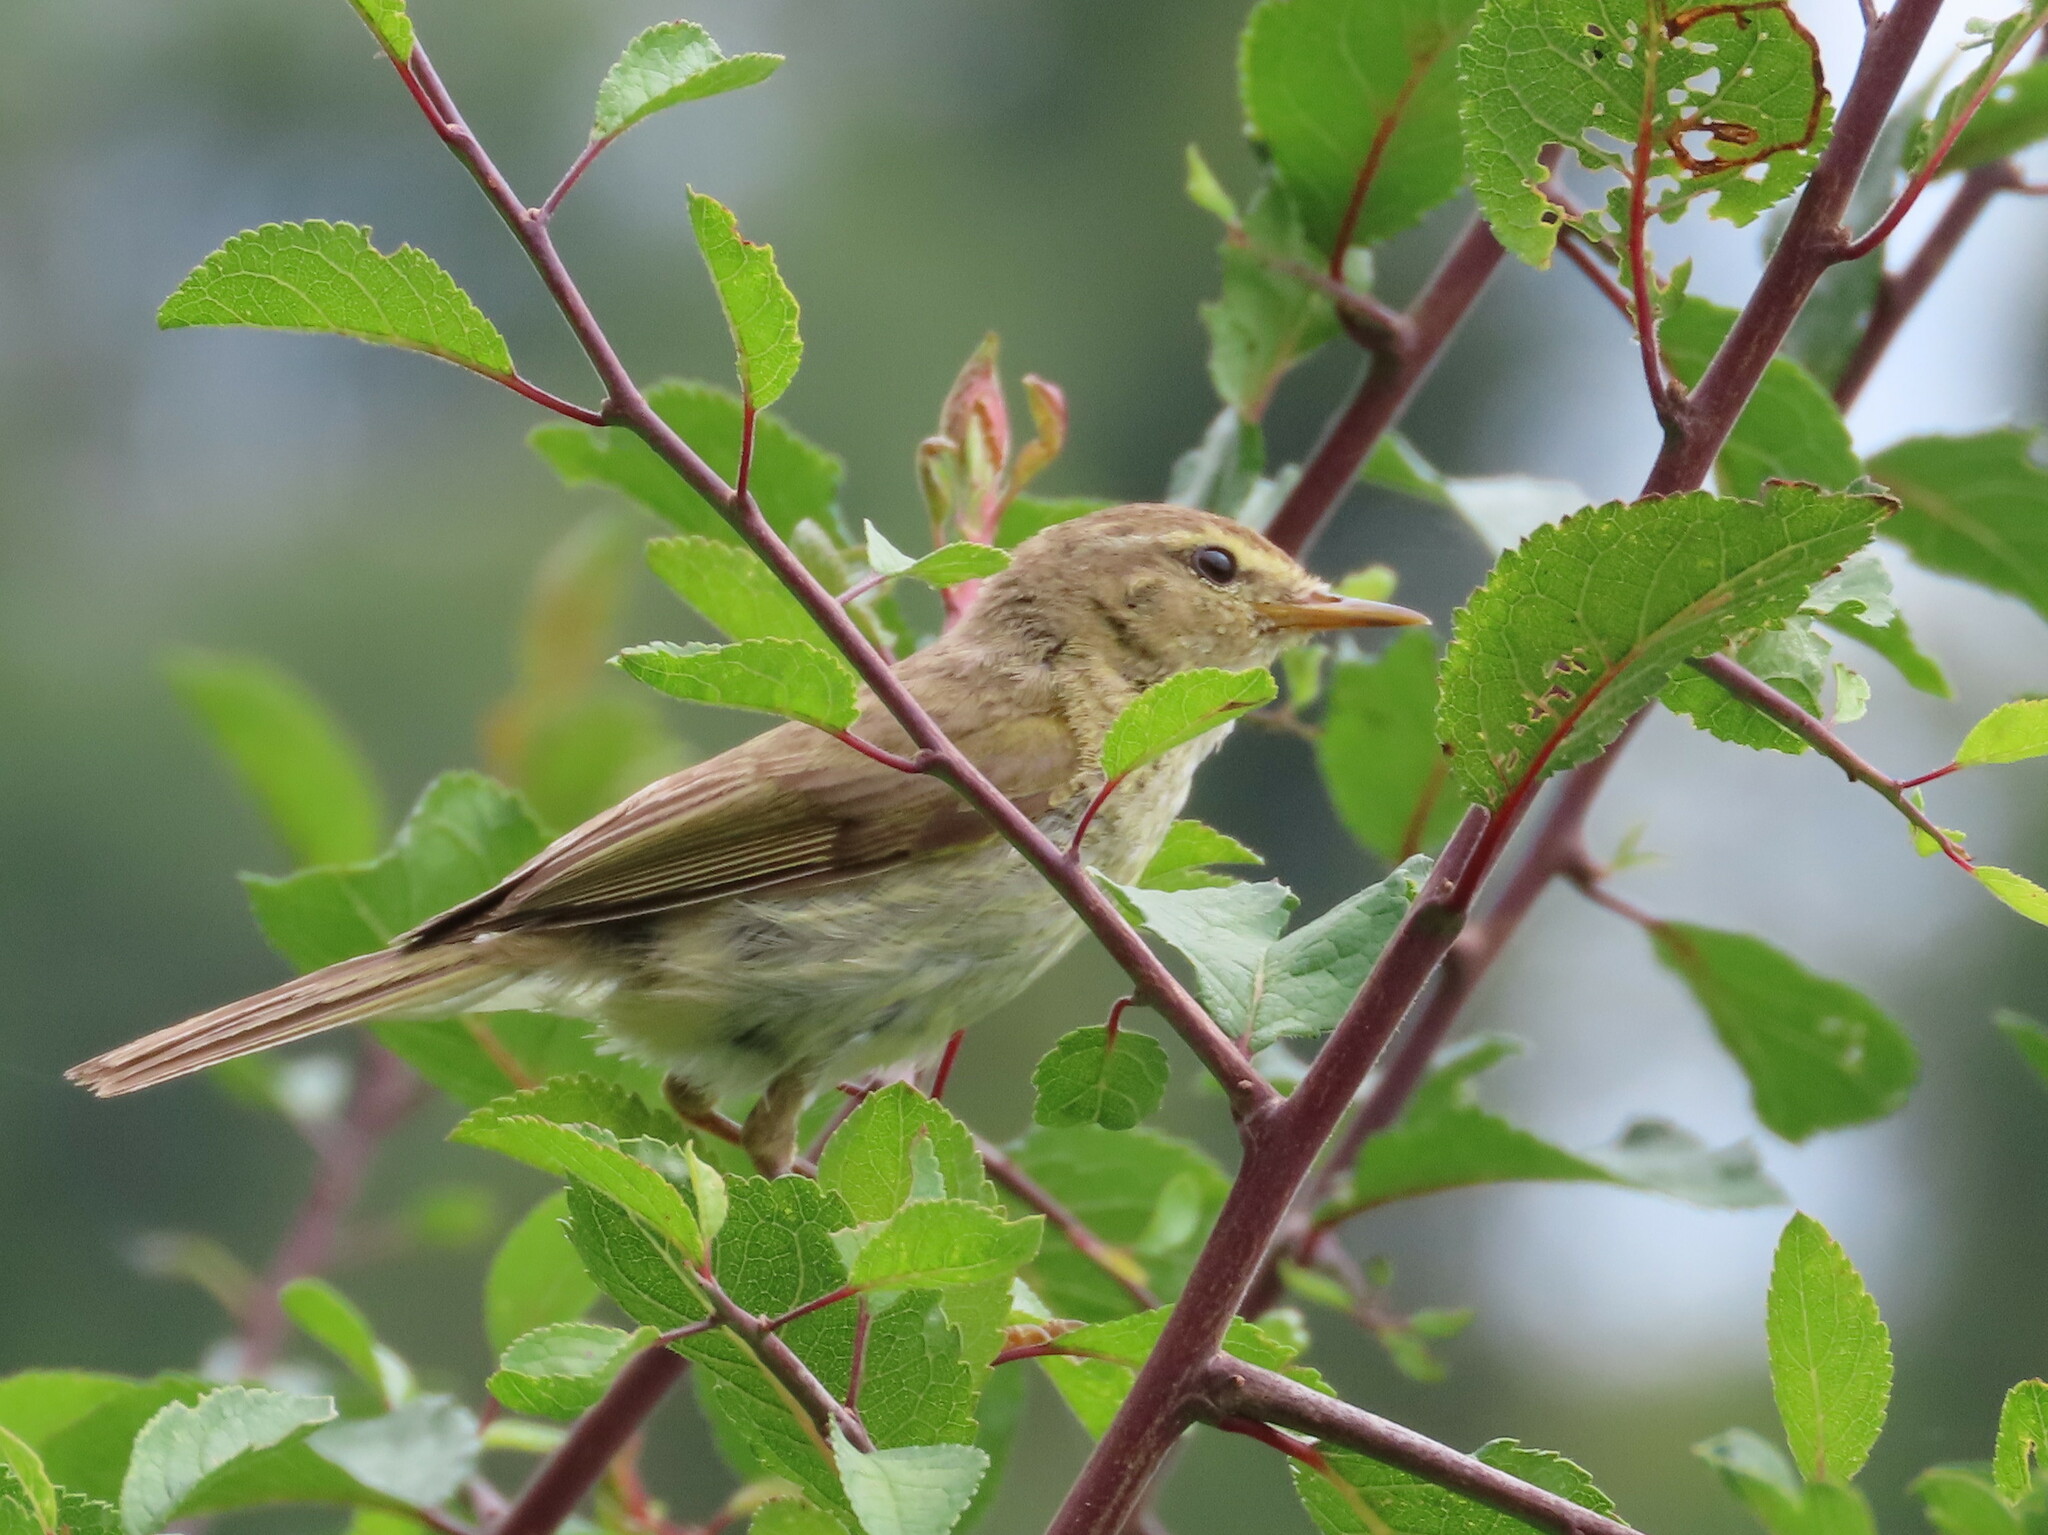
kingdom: Animalia
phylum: Chordata
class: Aves
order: Passeriformes
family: Phylloscopidae
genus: Phylloscopus
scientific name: Phylloscopus trochilus
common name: Willow warbler
